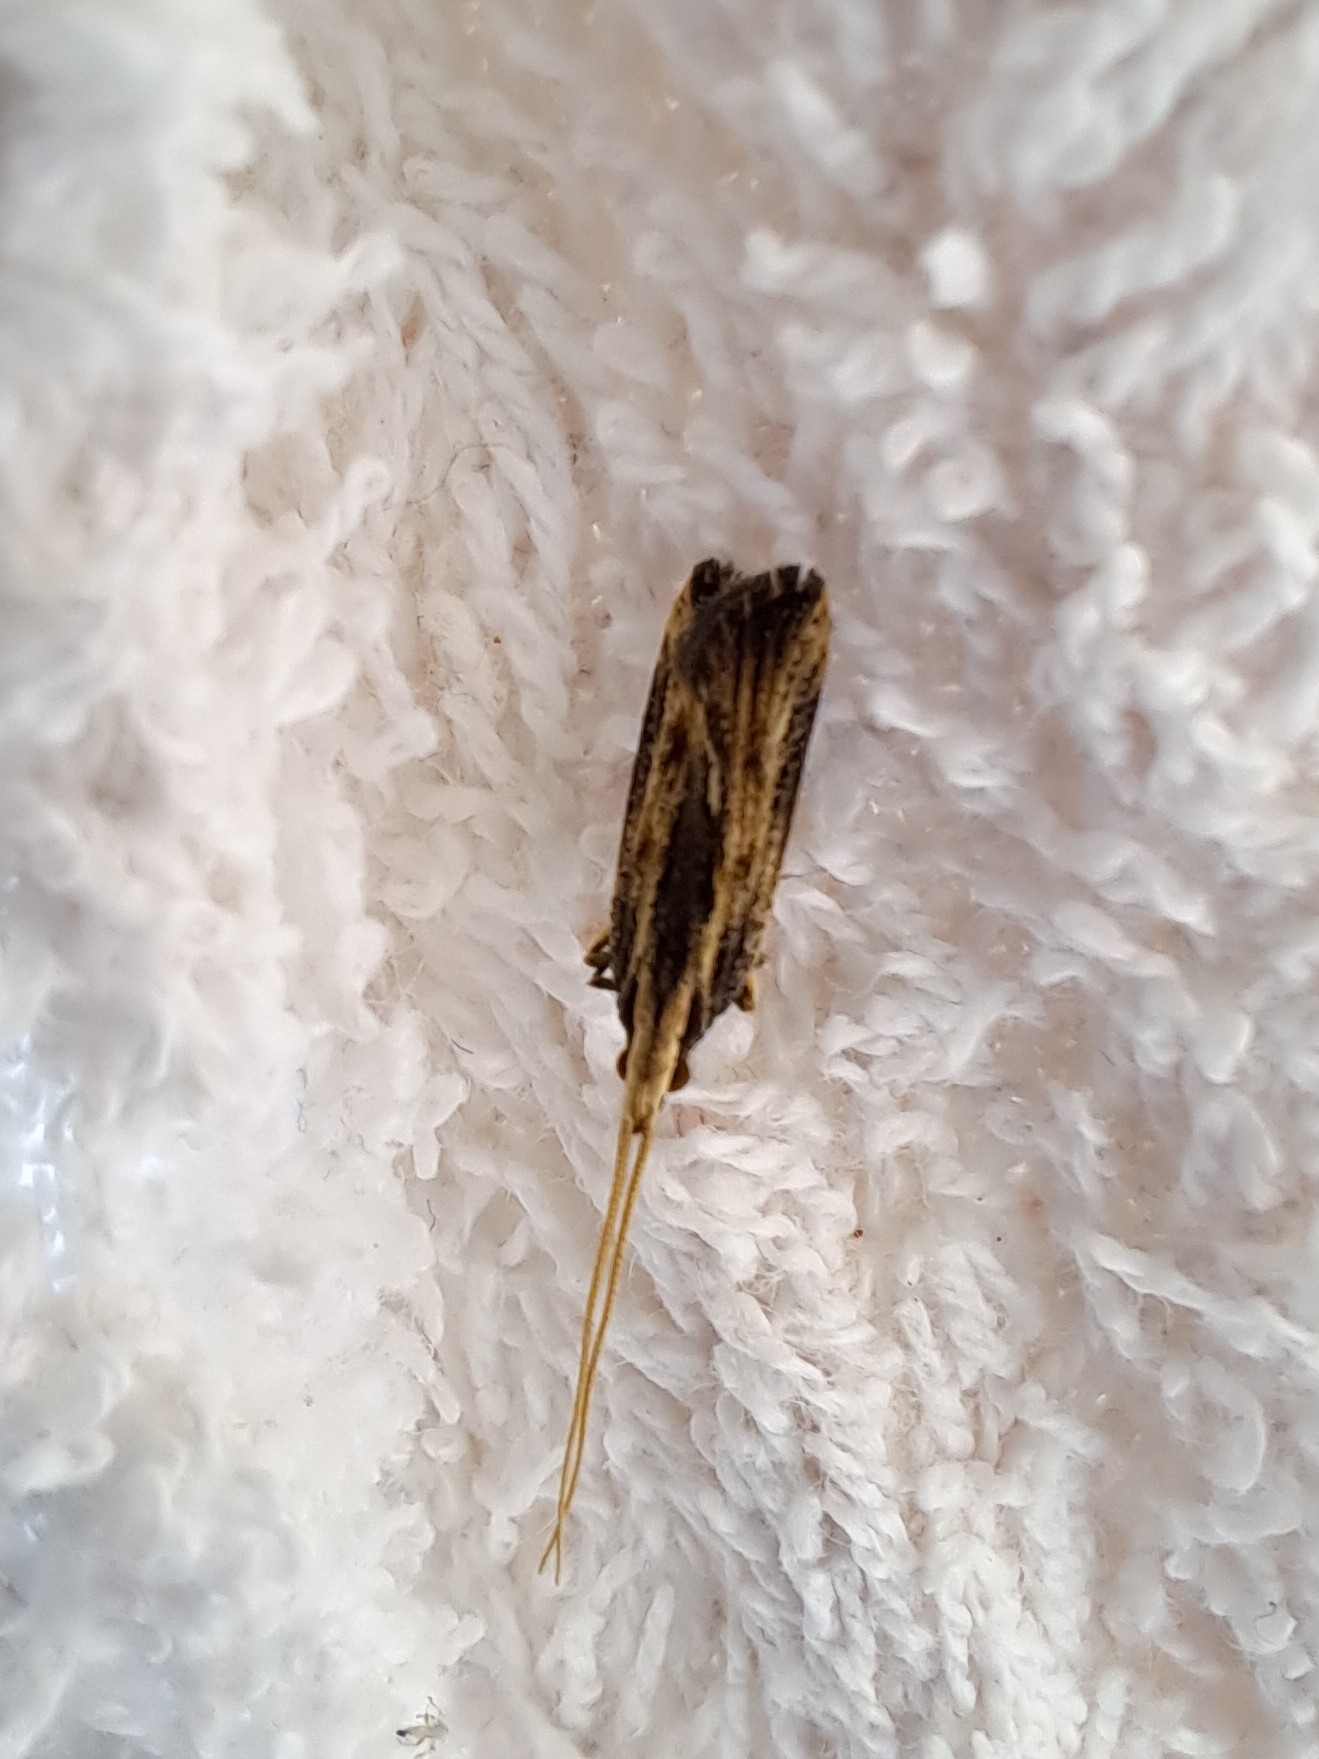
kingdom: Animalia
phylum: Arthropoda
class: Insecta
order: Lepidoptera
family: Lecithoceridae
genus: Sarisophora
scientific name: Sarisophora leucoscia
